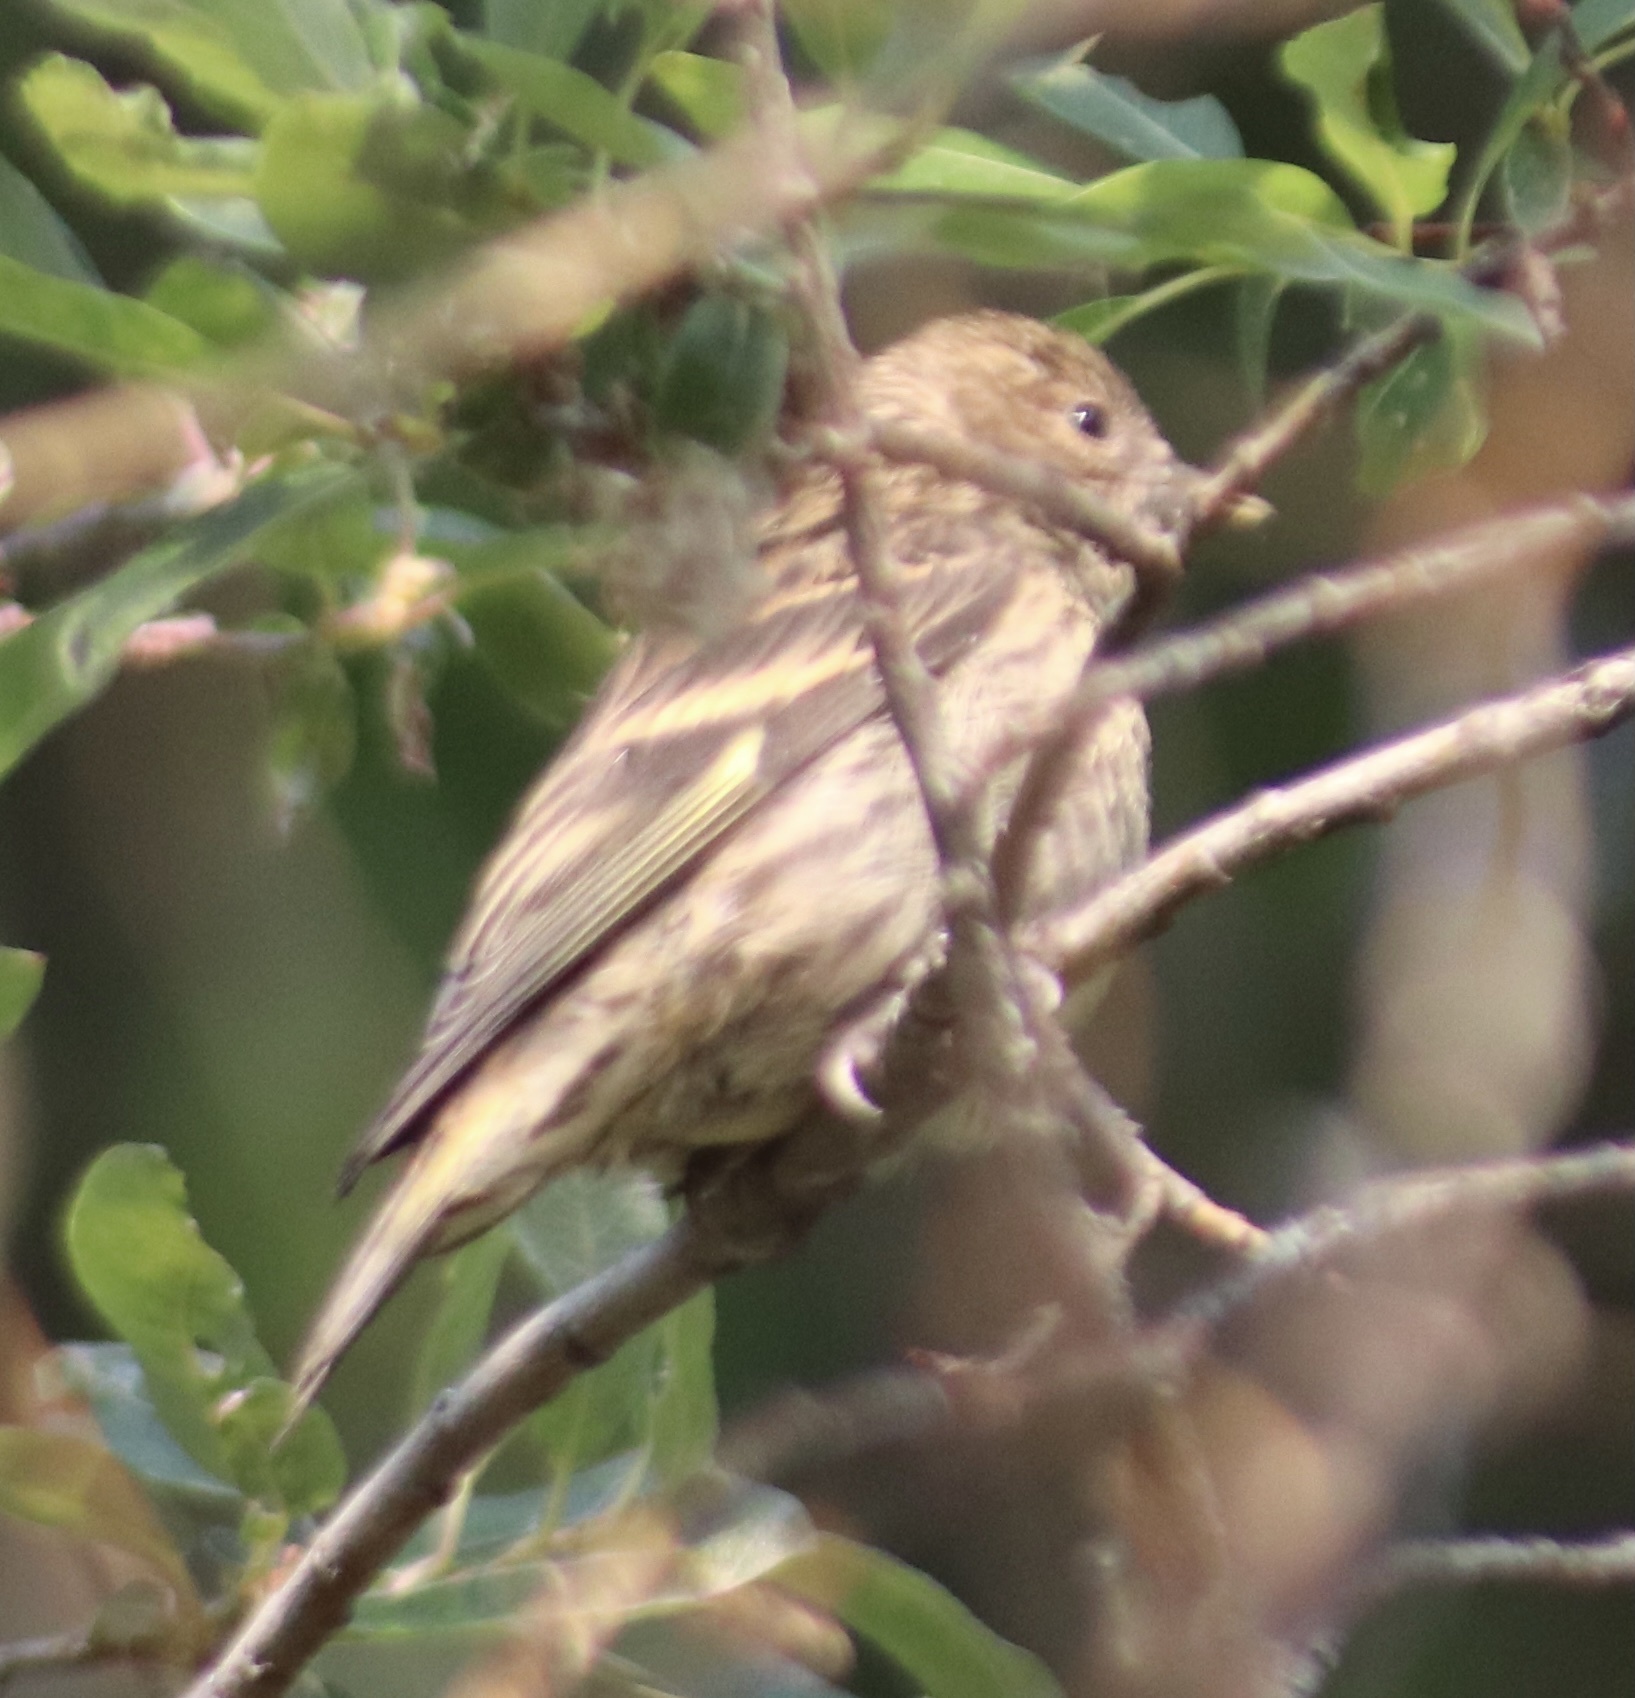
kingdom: Animalia
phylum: Chordata
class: Aves
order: Passeriformes
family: Fringillidae
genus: Spinus
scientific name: Spinus pinus
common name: Pine siskin
